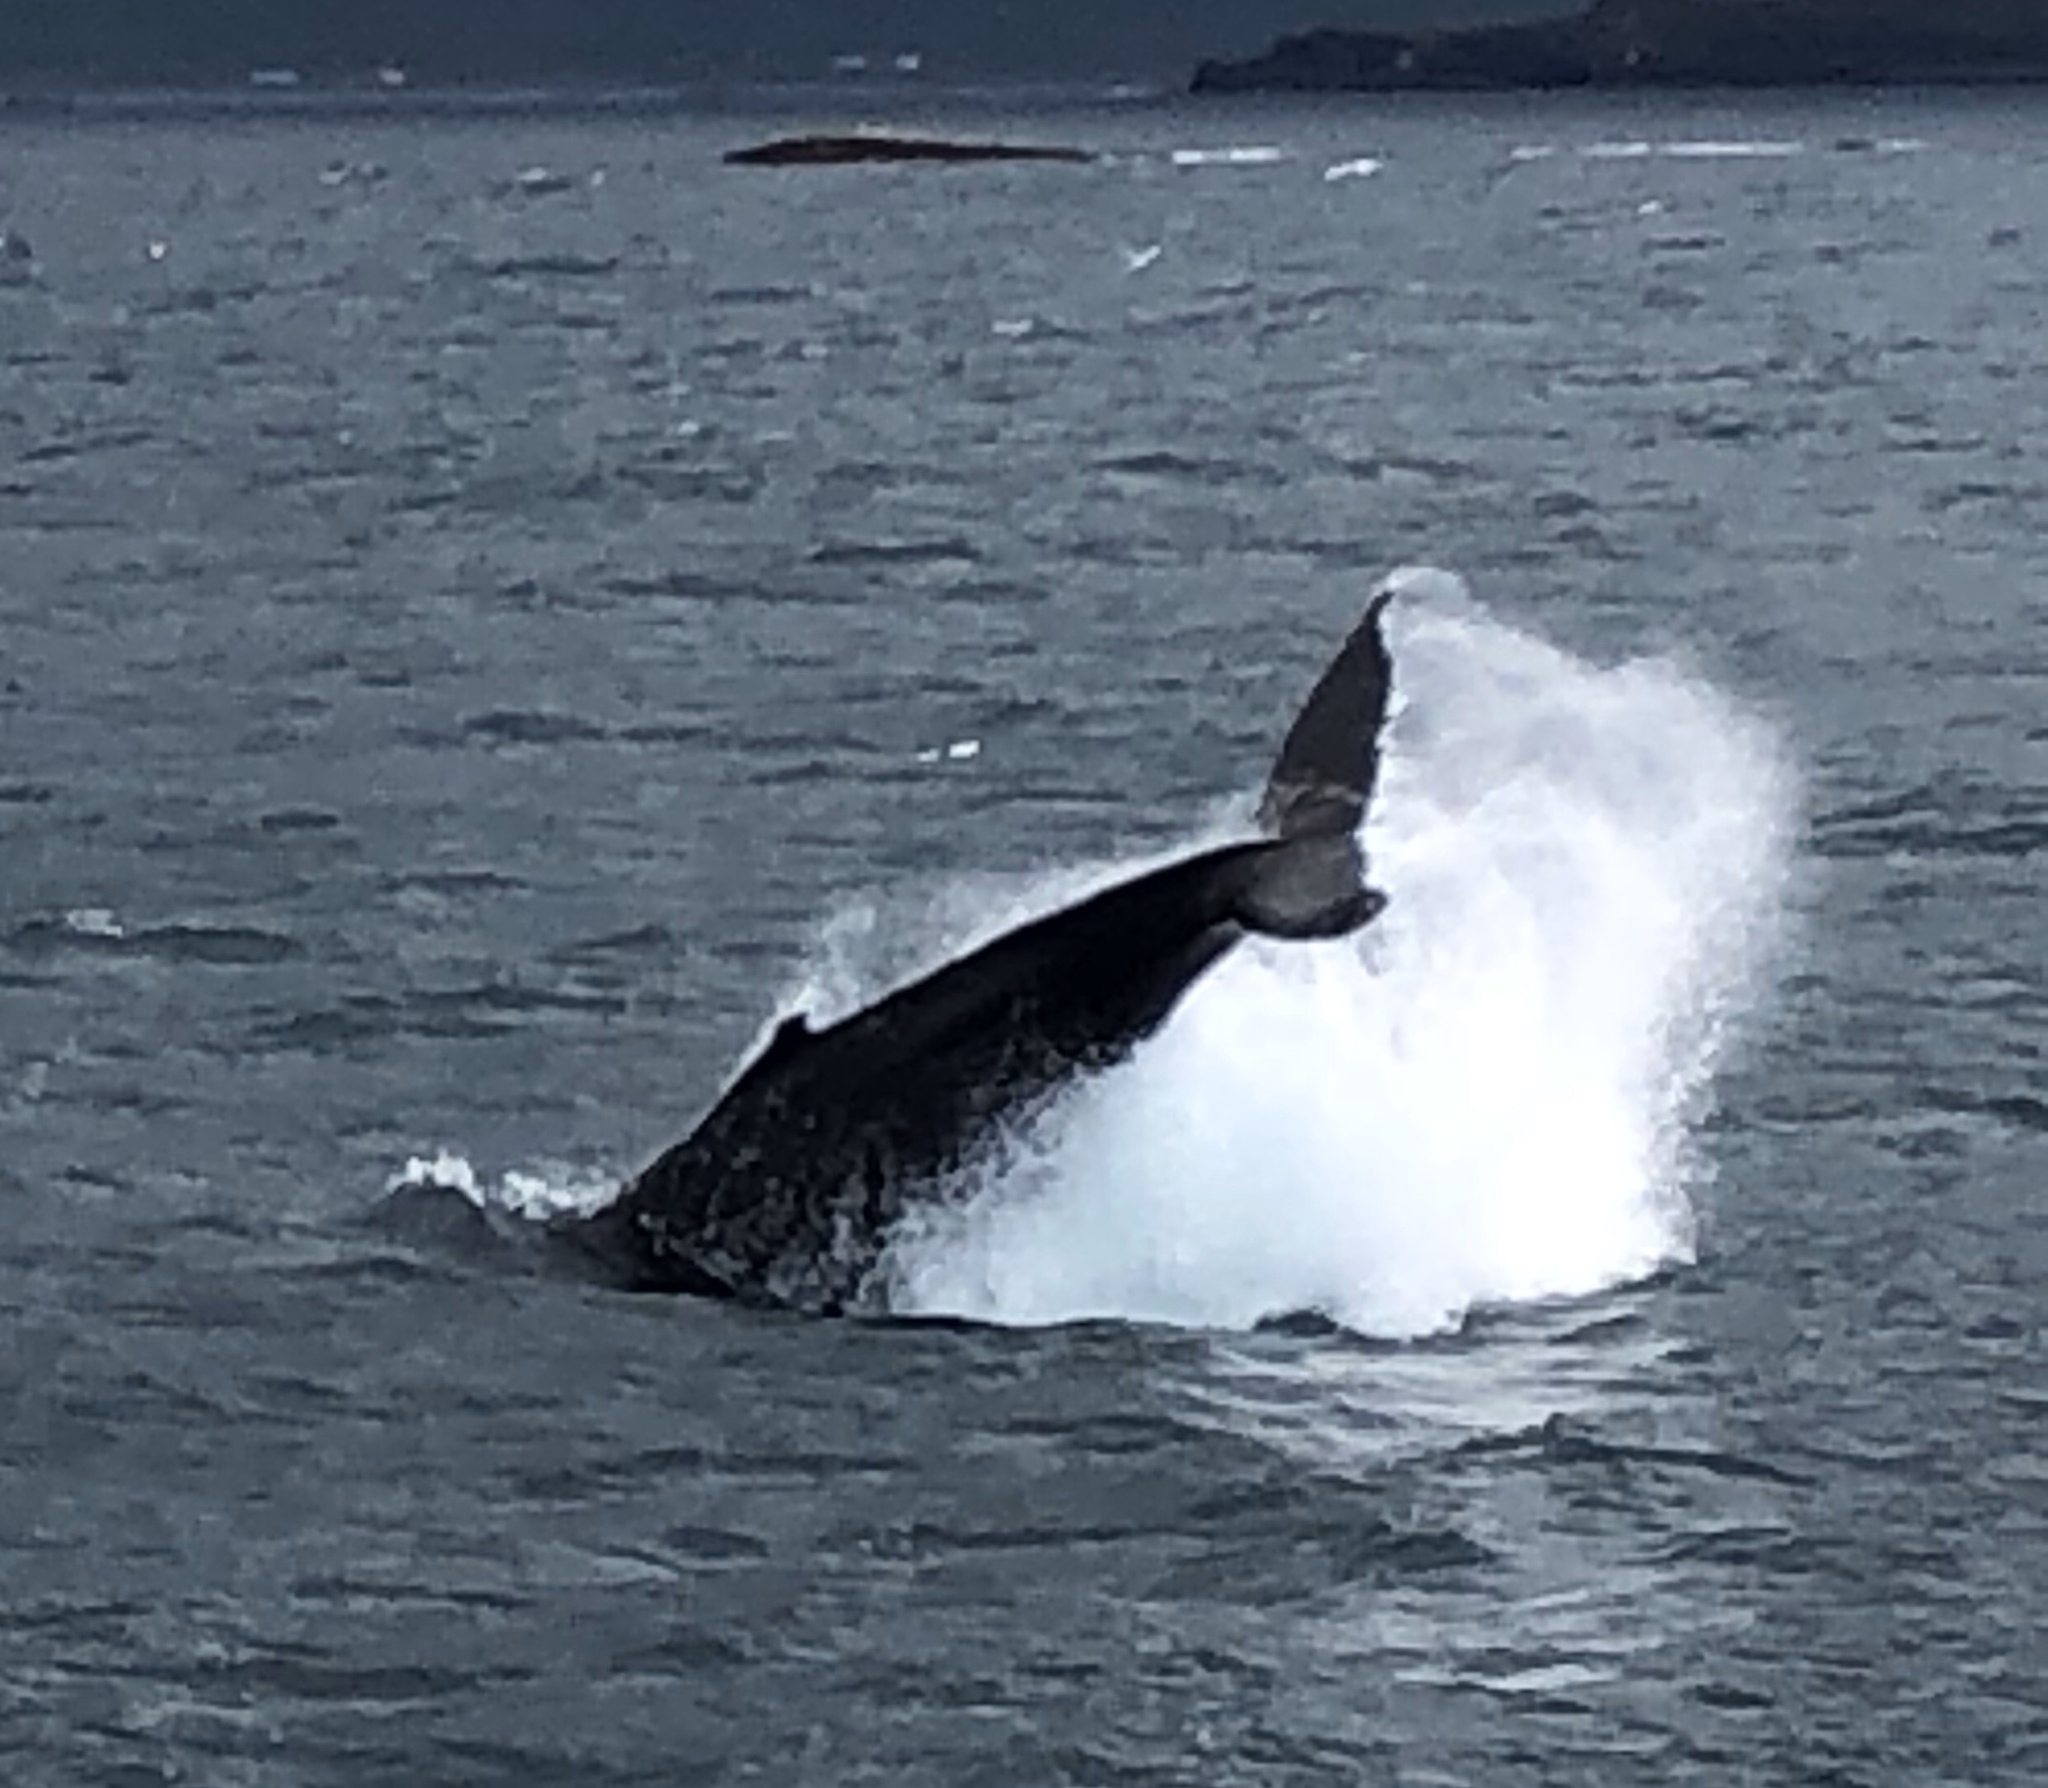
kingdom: Animalia
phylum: Chordata
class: Mammalia
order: Cetacea
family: Balaenopteridae
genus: Megaptera
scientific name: Megaptera novaeangliae
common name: Humpback whale
